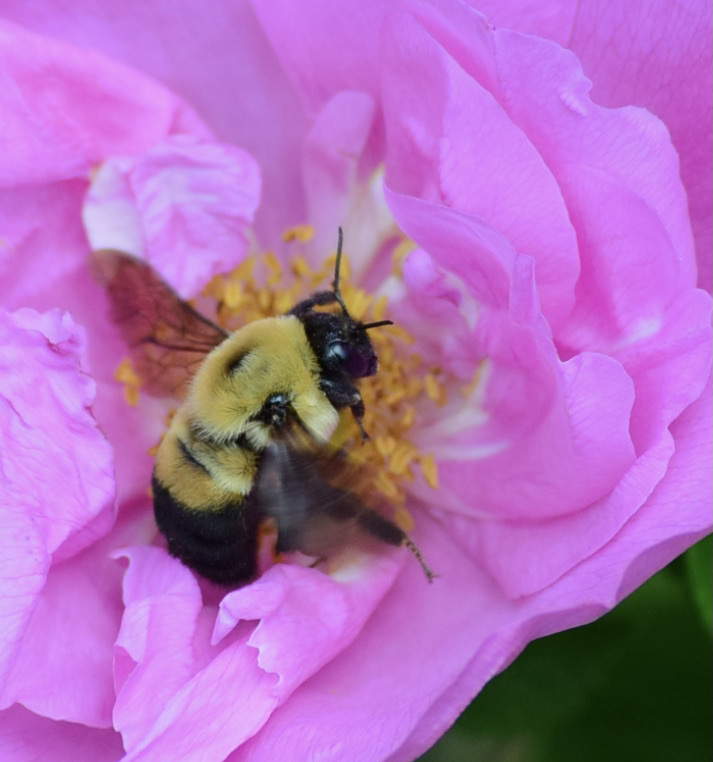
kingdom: Animalia
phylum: Arthropoda
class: Insecta
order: Hymenoptera
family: Apidae
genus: Bombus
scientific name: Bombus griseocollis
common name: Brown-belted bumble bee
